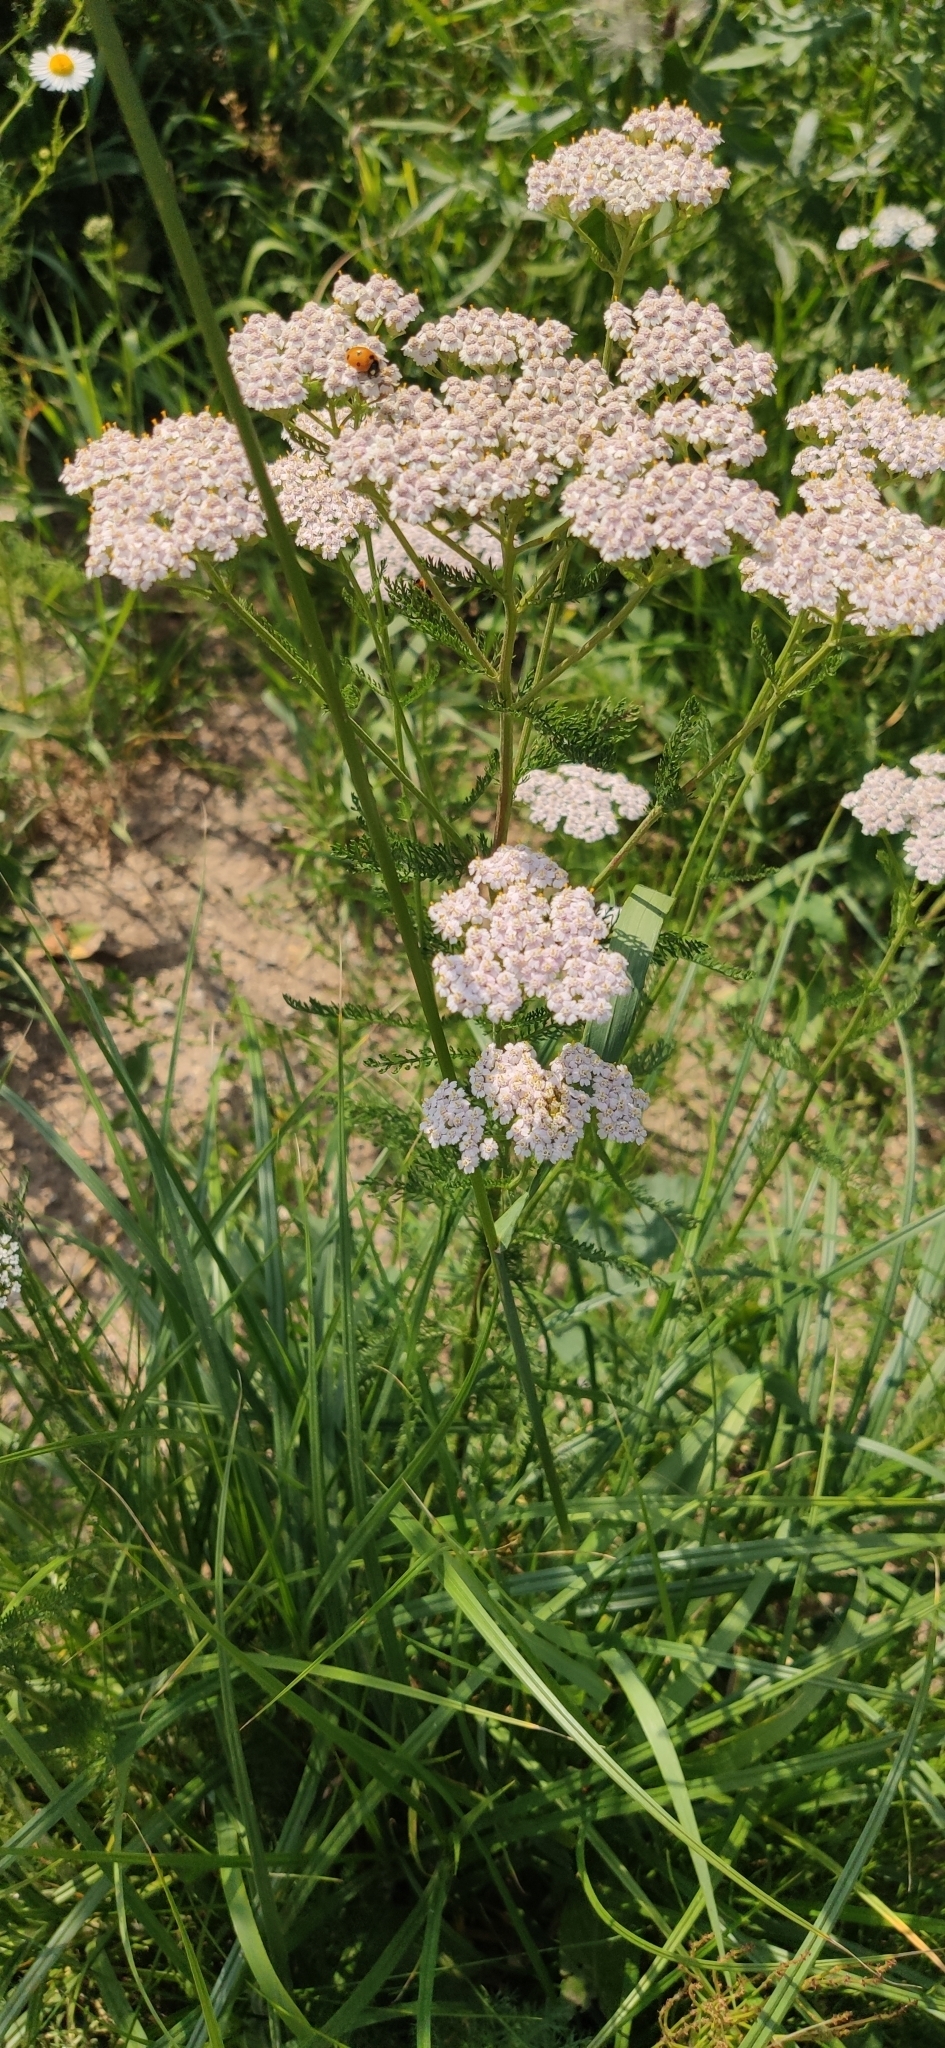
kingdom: Plantae
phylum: Tracheophyta
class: Magnoliopsida
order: Asterales
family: Asteraceae
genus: Achillea
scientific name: Achillea millefolium
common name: Yarrow
